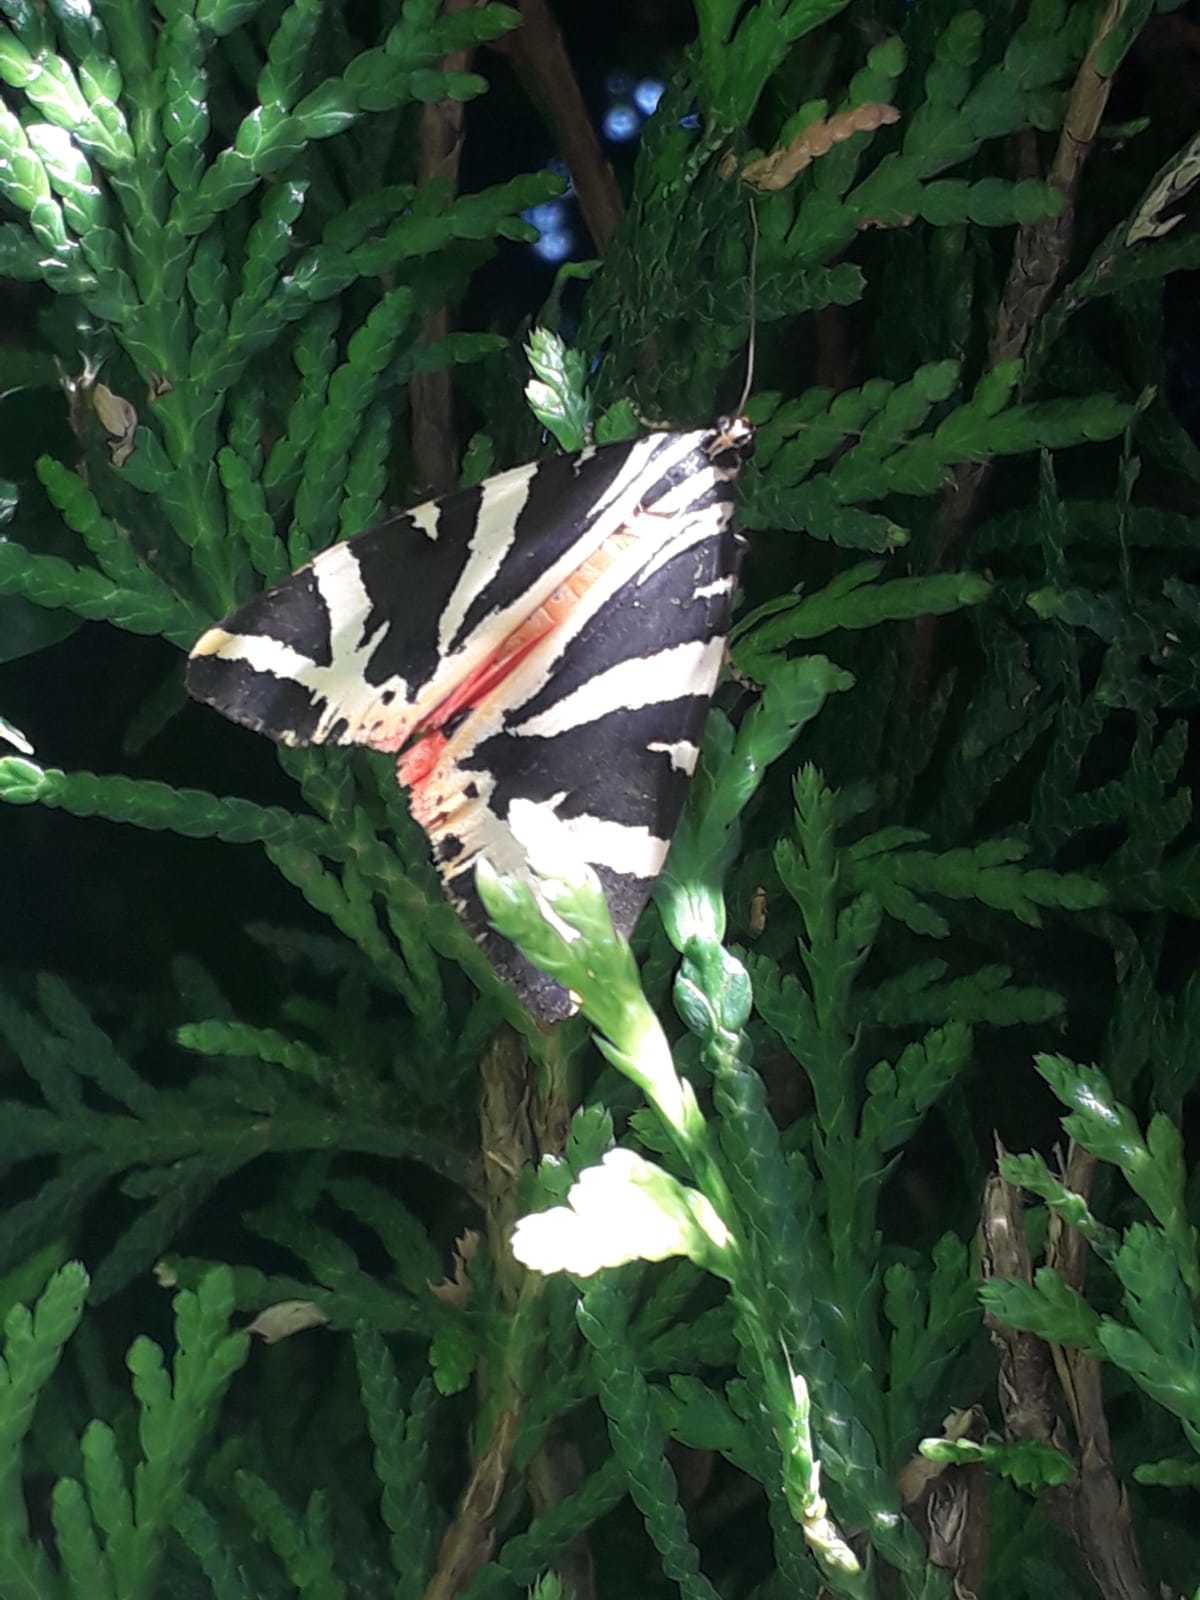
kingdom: Animalia
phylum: Arthropoda
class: Insecta
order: Lepidoptera
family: Erebidae
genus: Euplagia
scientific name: Euplagia quadripunctaria
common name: Jersey tiger
